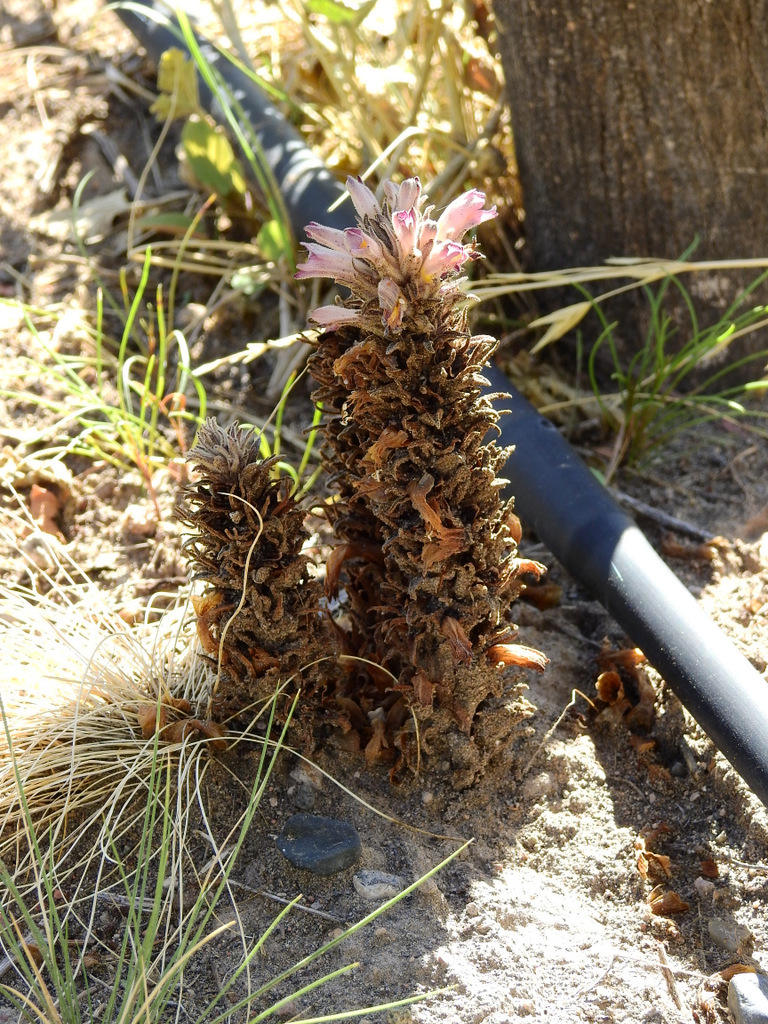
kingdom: Plantae
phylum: Tracheophyta
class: Magnoliopsida
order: Lamiales
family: Orobanchaceae
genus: Aphyllon
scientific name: Aphyllon chilense
